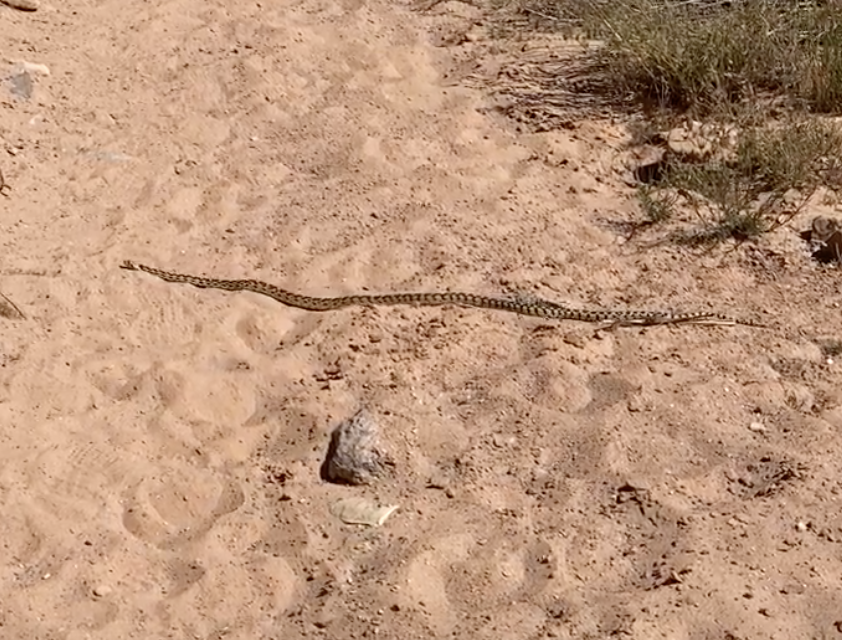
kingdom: Animalia
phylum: Chordata
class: Squamata
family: Colubridae
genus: Pituophis
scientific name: Pituophis catenifer
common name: Gopher snake
